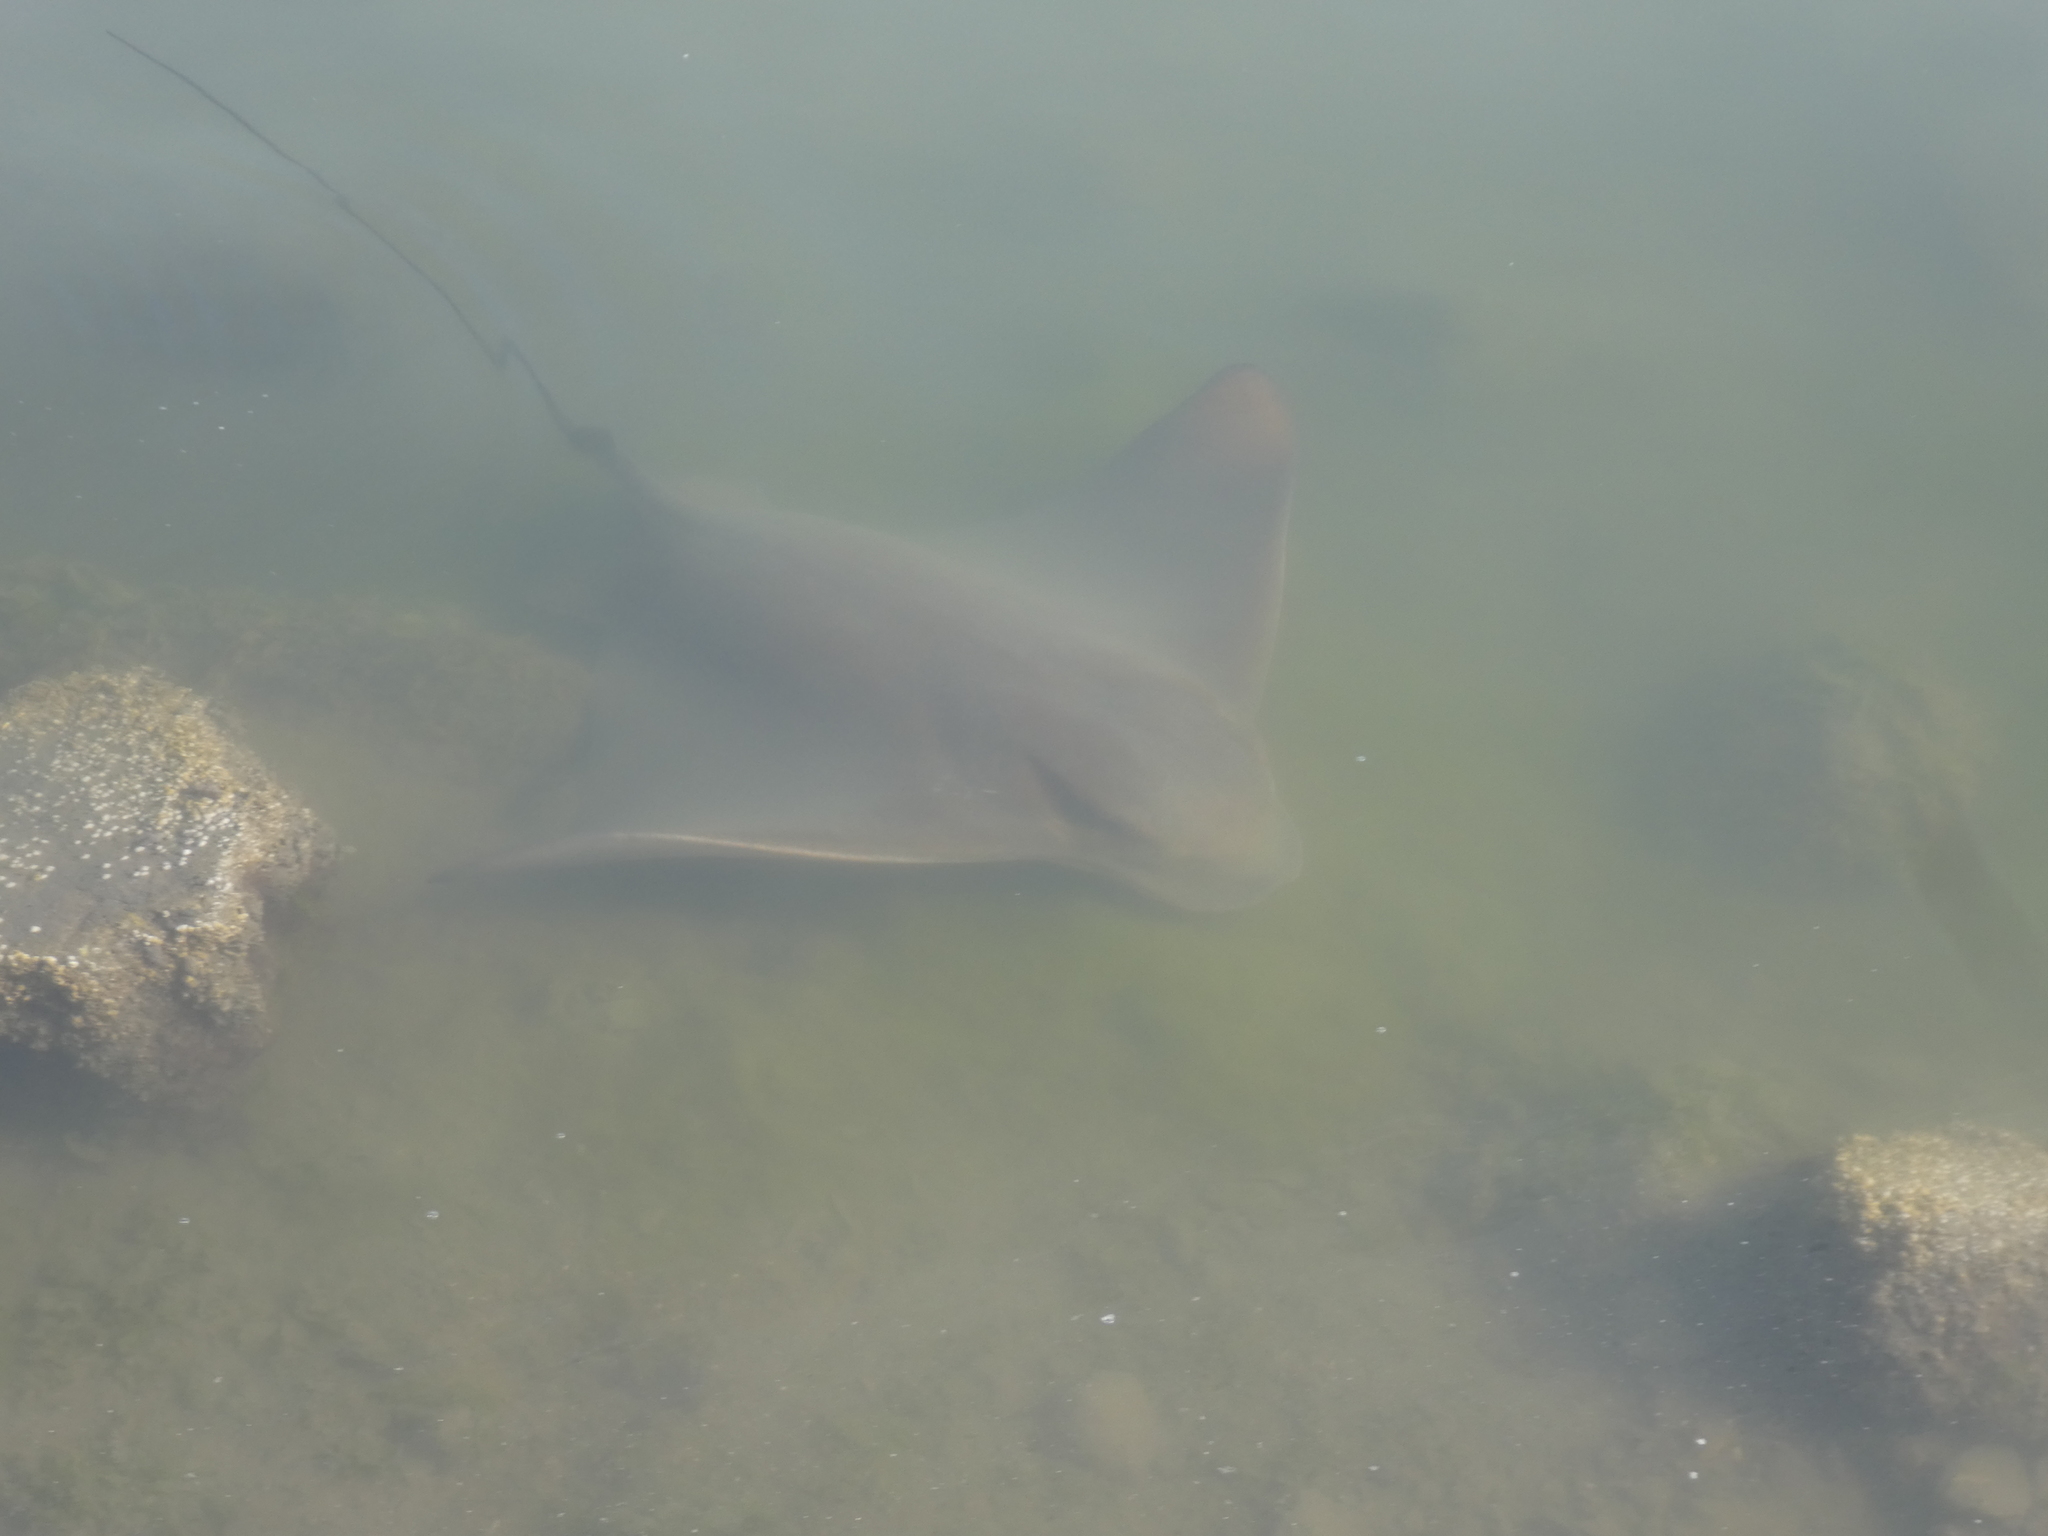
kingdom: Animalia
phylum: Chordata
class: Elasmobranchii
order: Myliobatiformes
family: Myliobatidae
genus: Myliobatis
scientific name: Myliobatis californica
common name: Bat ray
